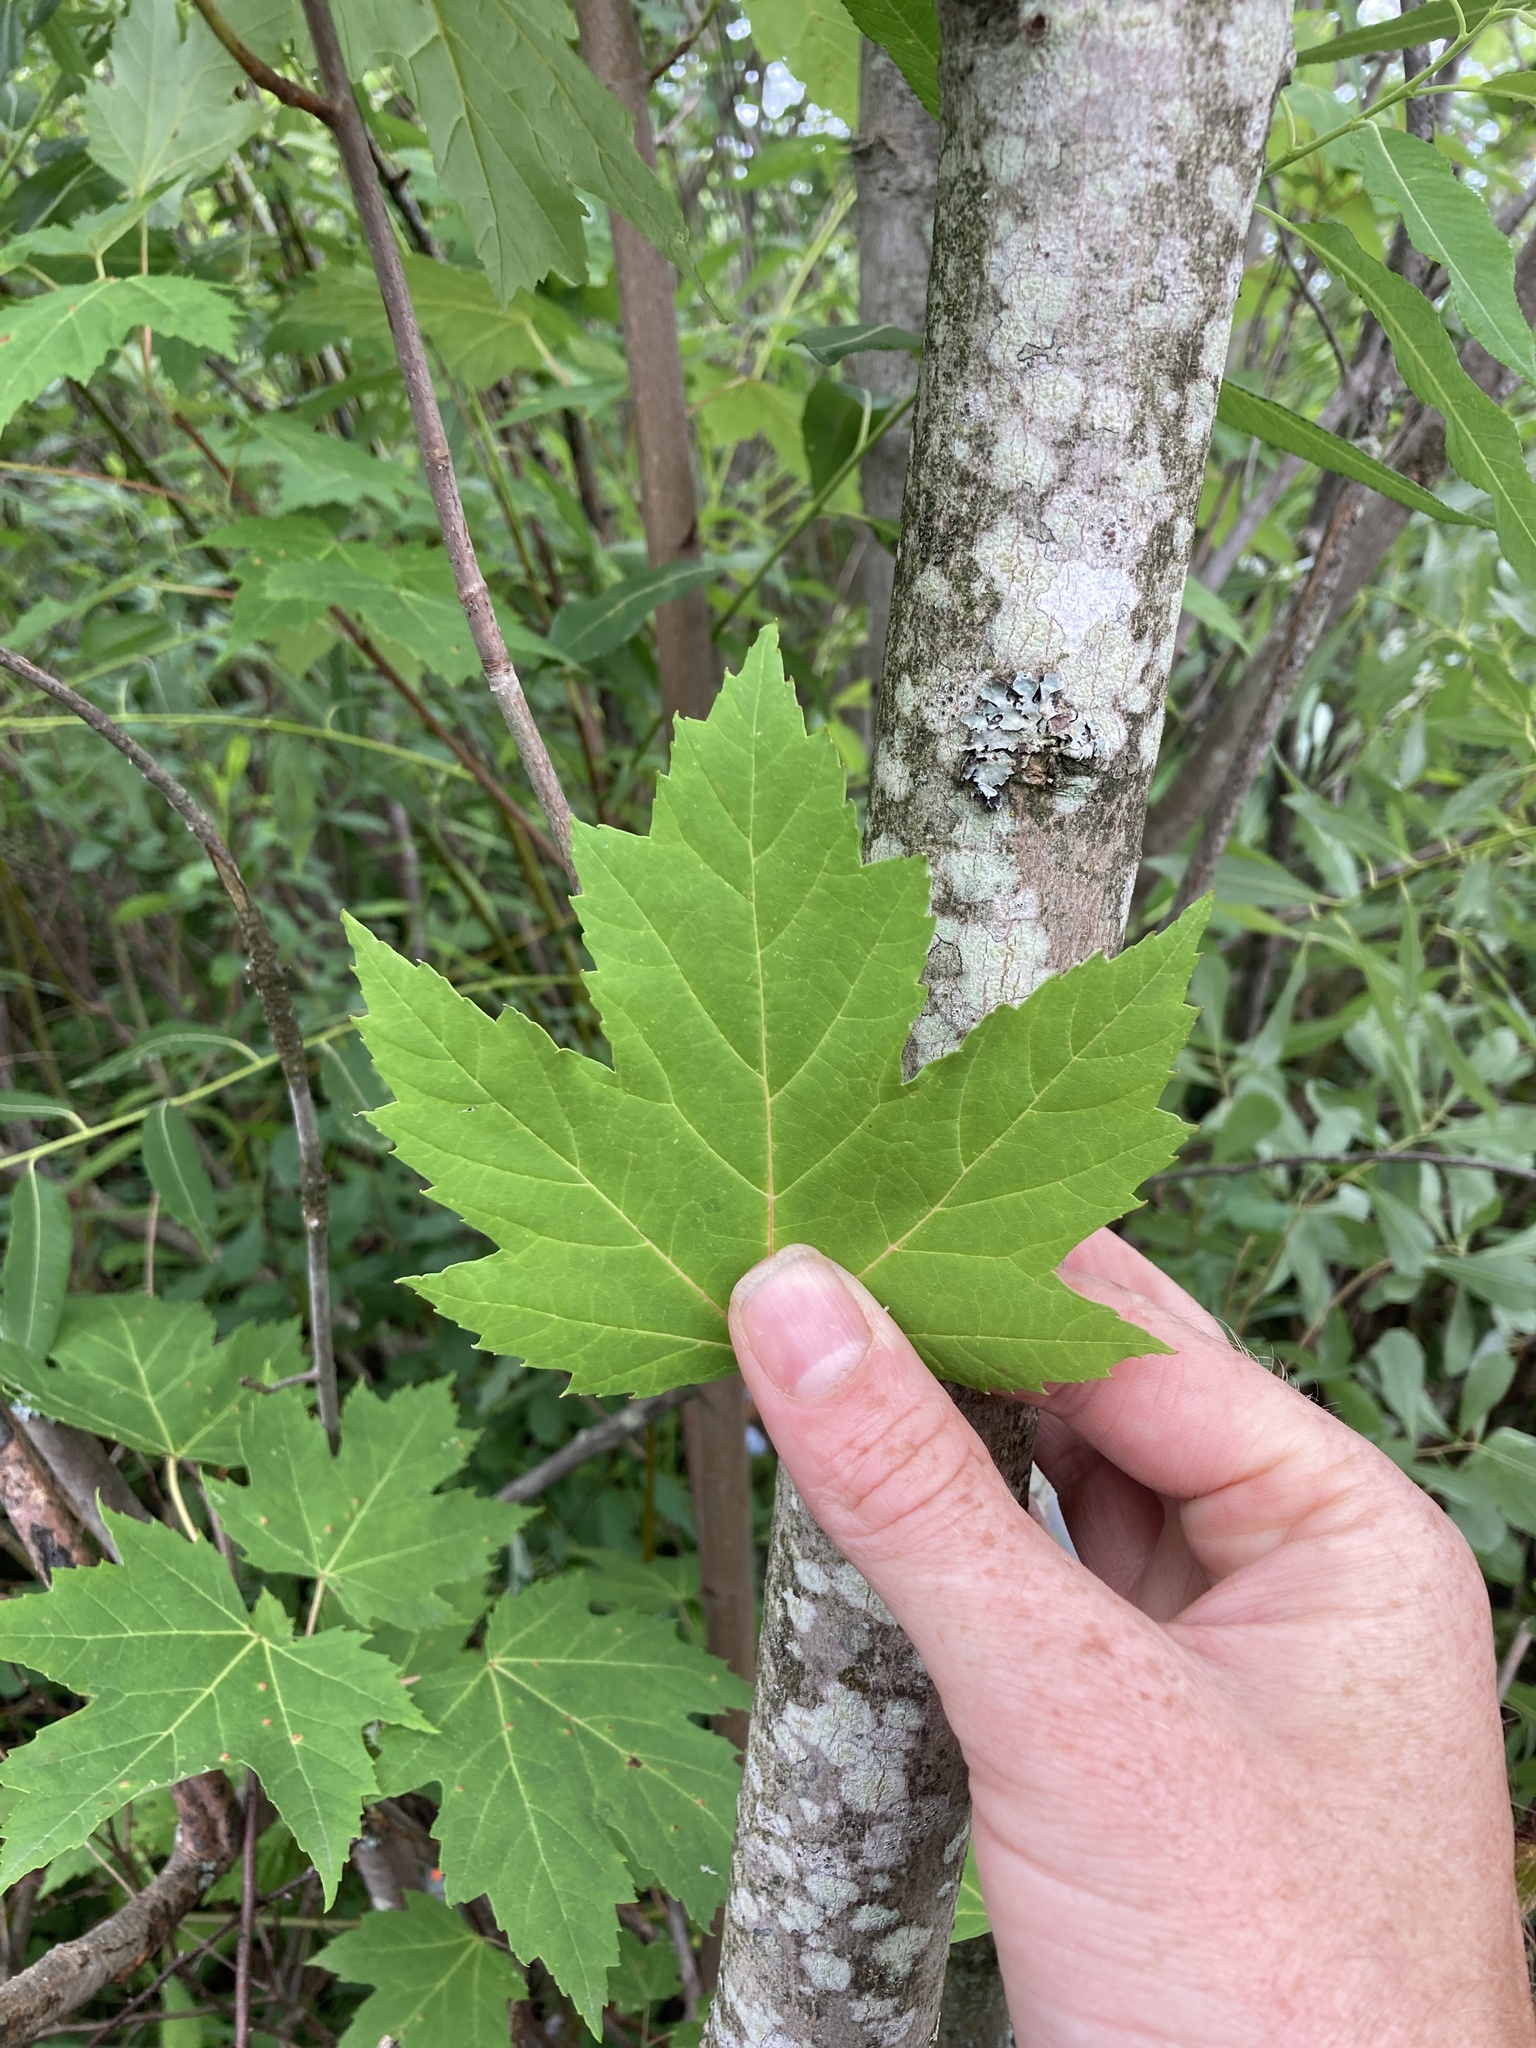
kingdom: Plantae
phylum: Tracheophyta
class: Magnoliopsida
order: Sapindales
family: Sapindaceae
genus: Acer
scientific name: Acer freemanii
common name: Freeman maple
